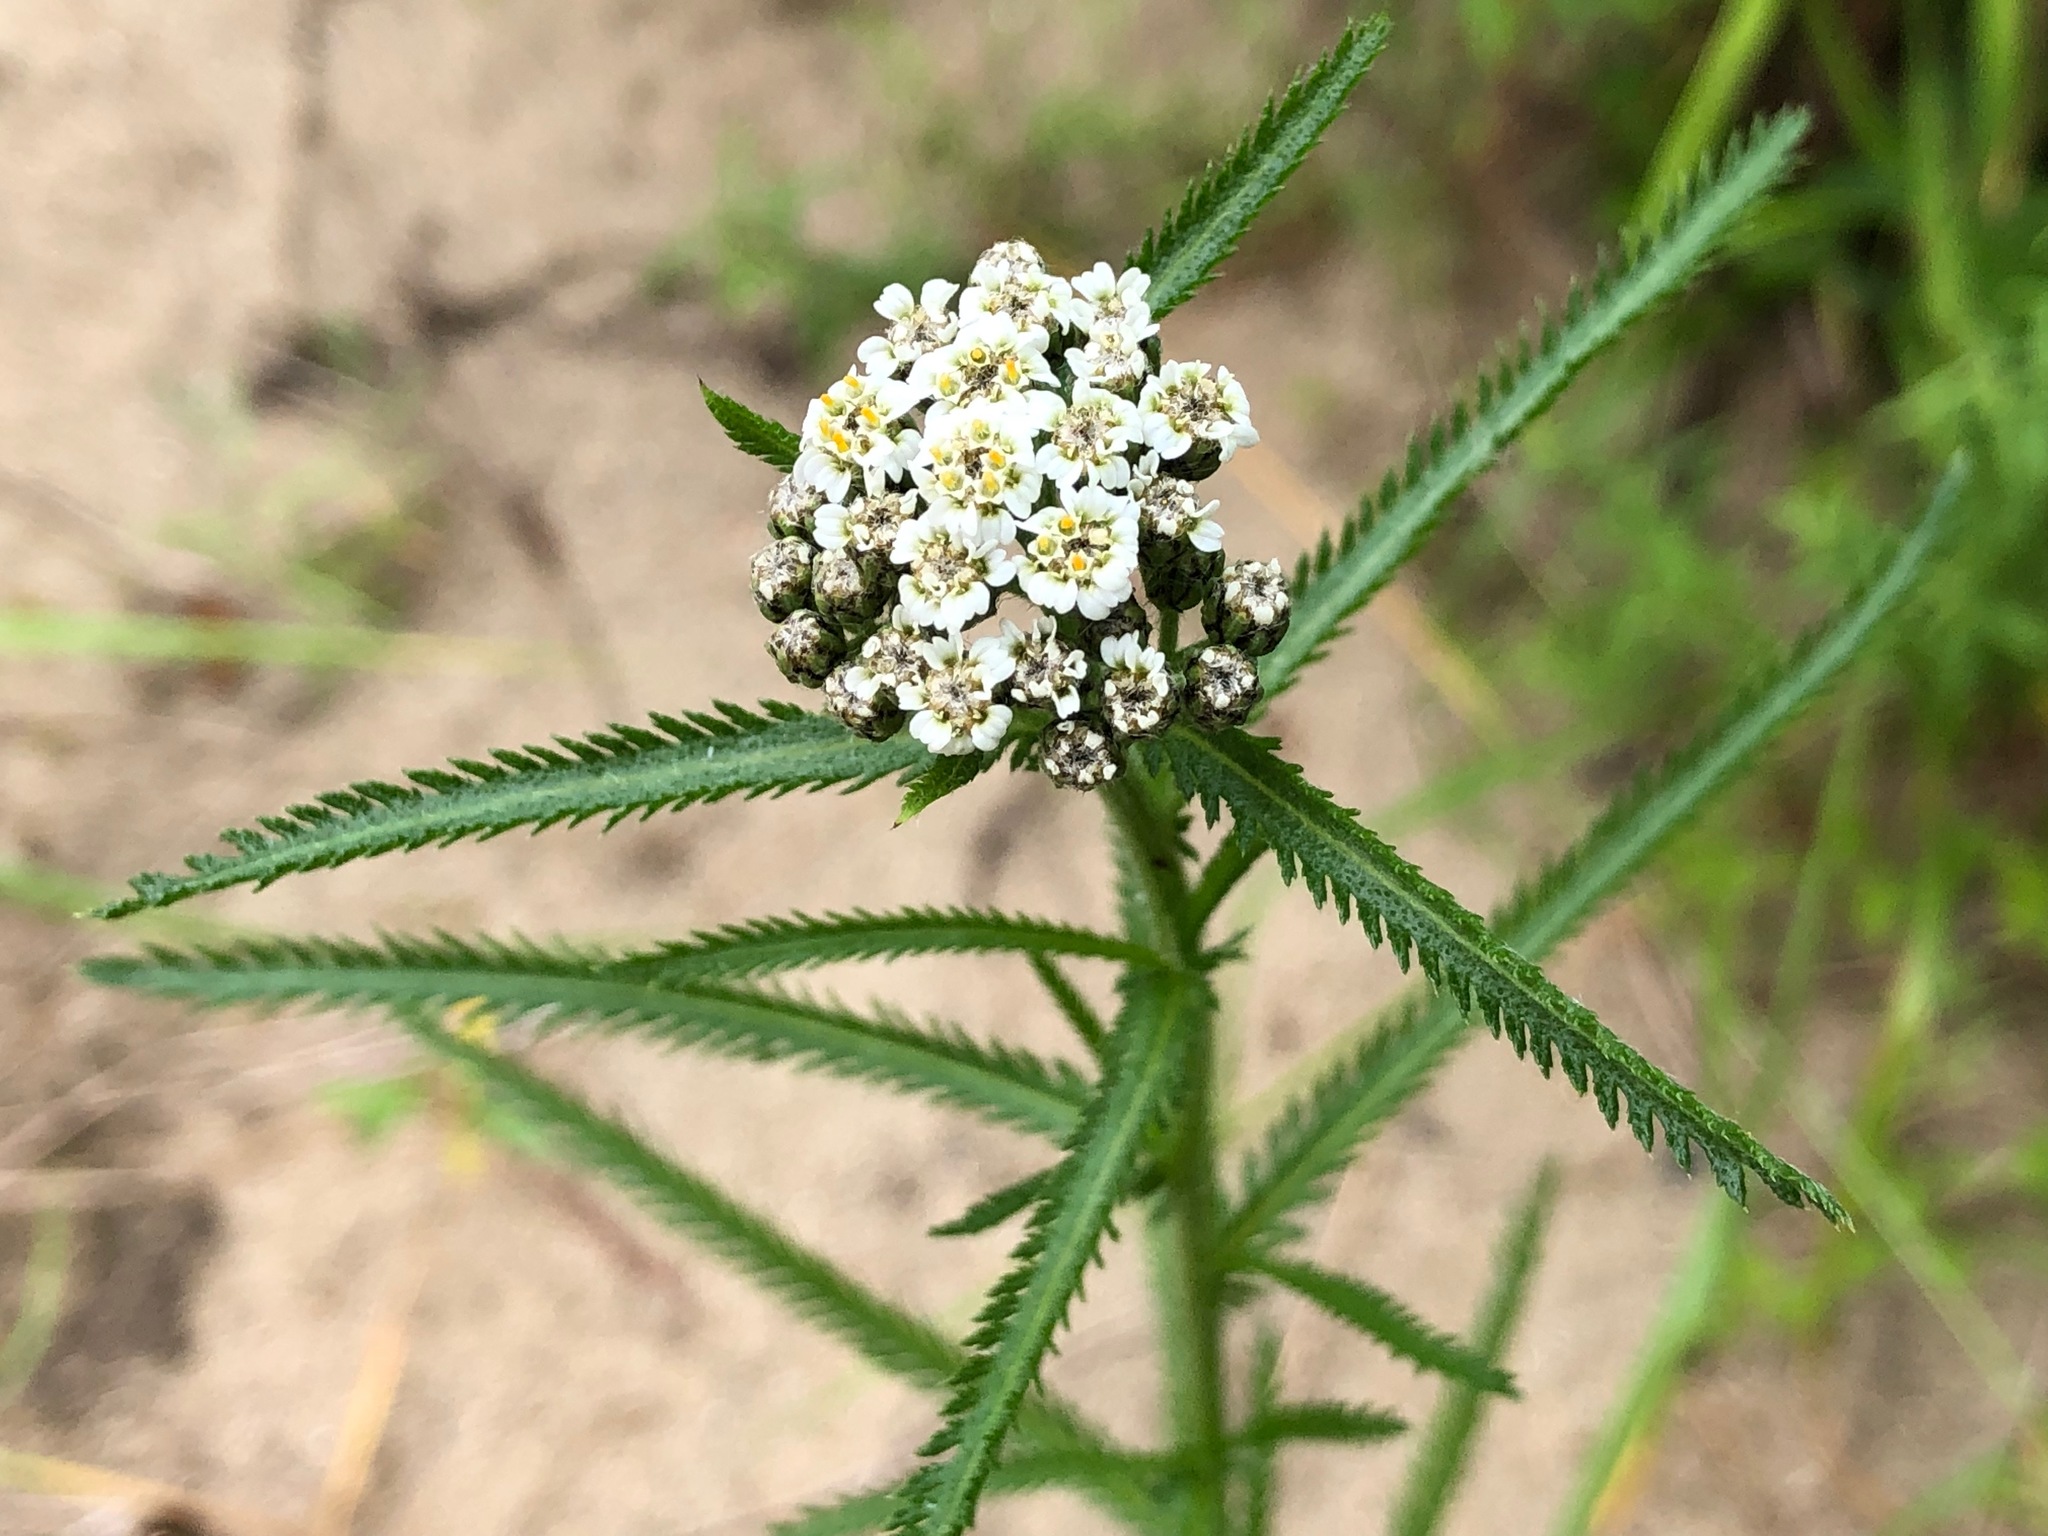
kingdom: Plantae
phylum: Tracheophyta
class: Magnoliopsida
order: Asterales
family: Asteraceae
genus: Achillea
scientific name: Achillea alpina
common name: Siberian yarrow
